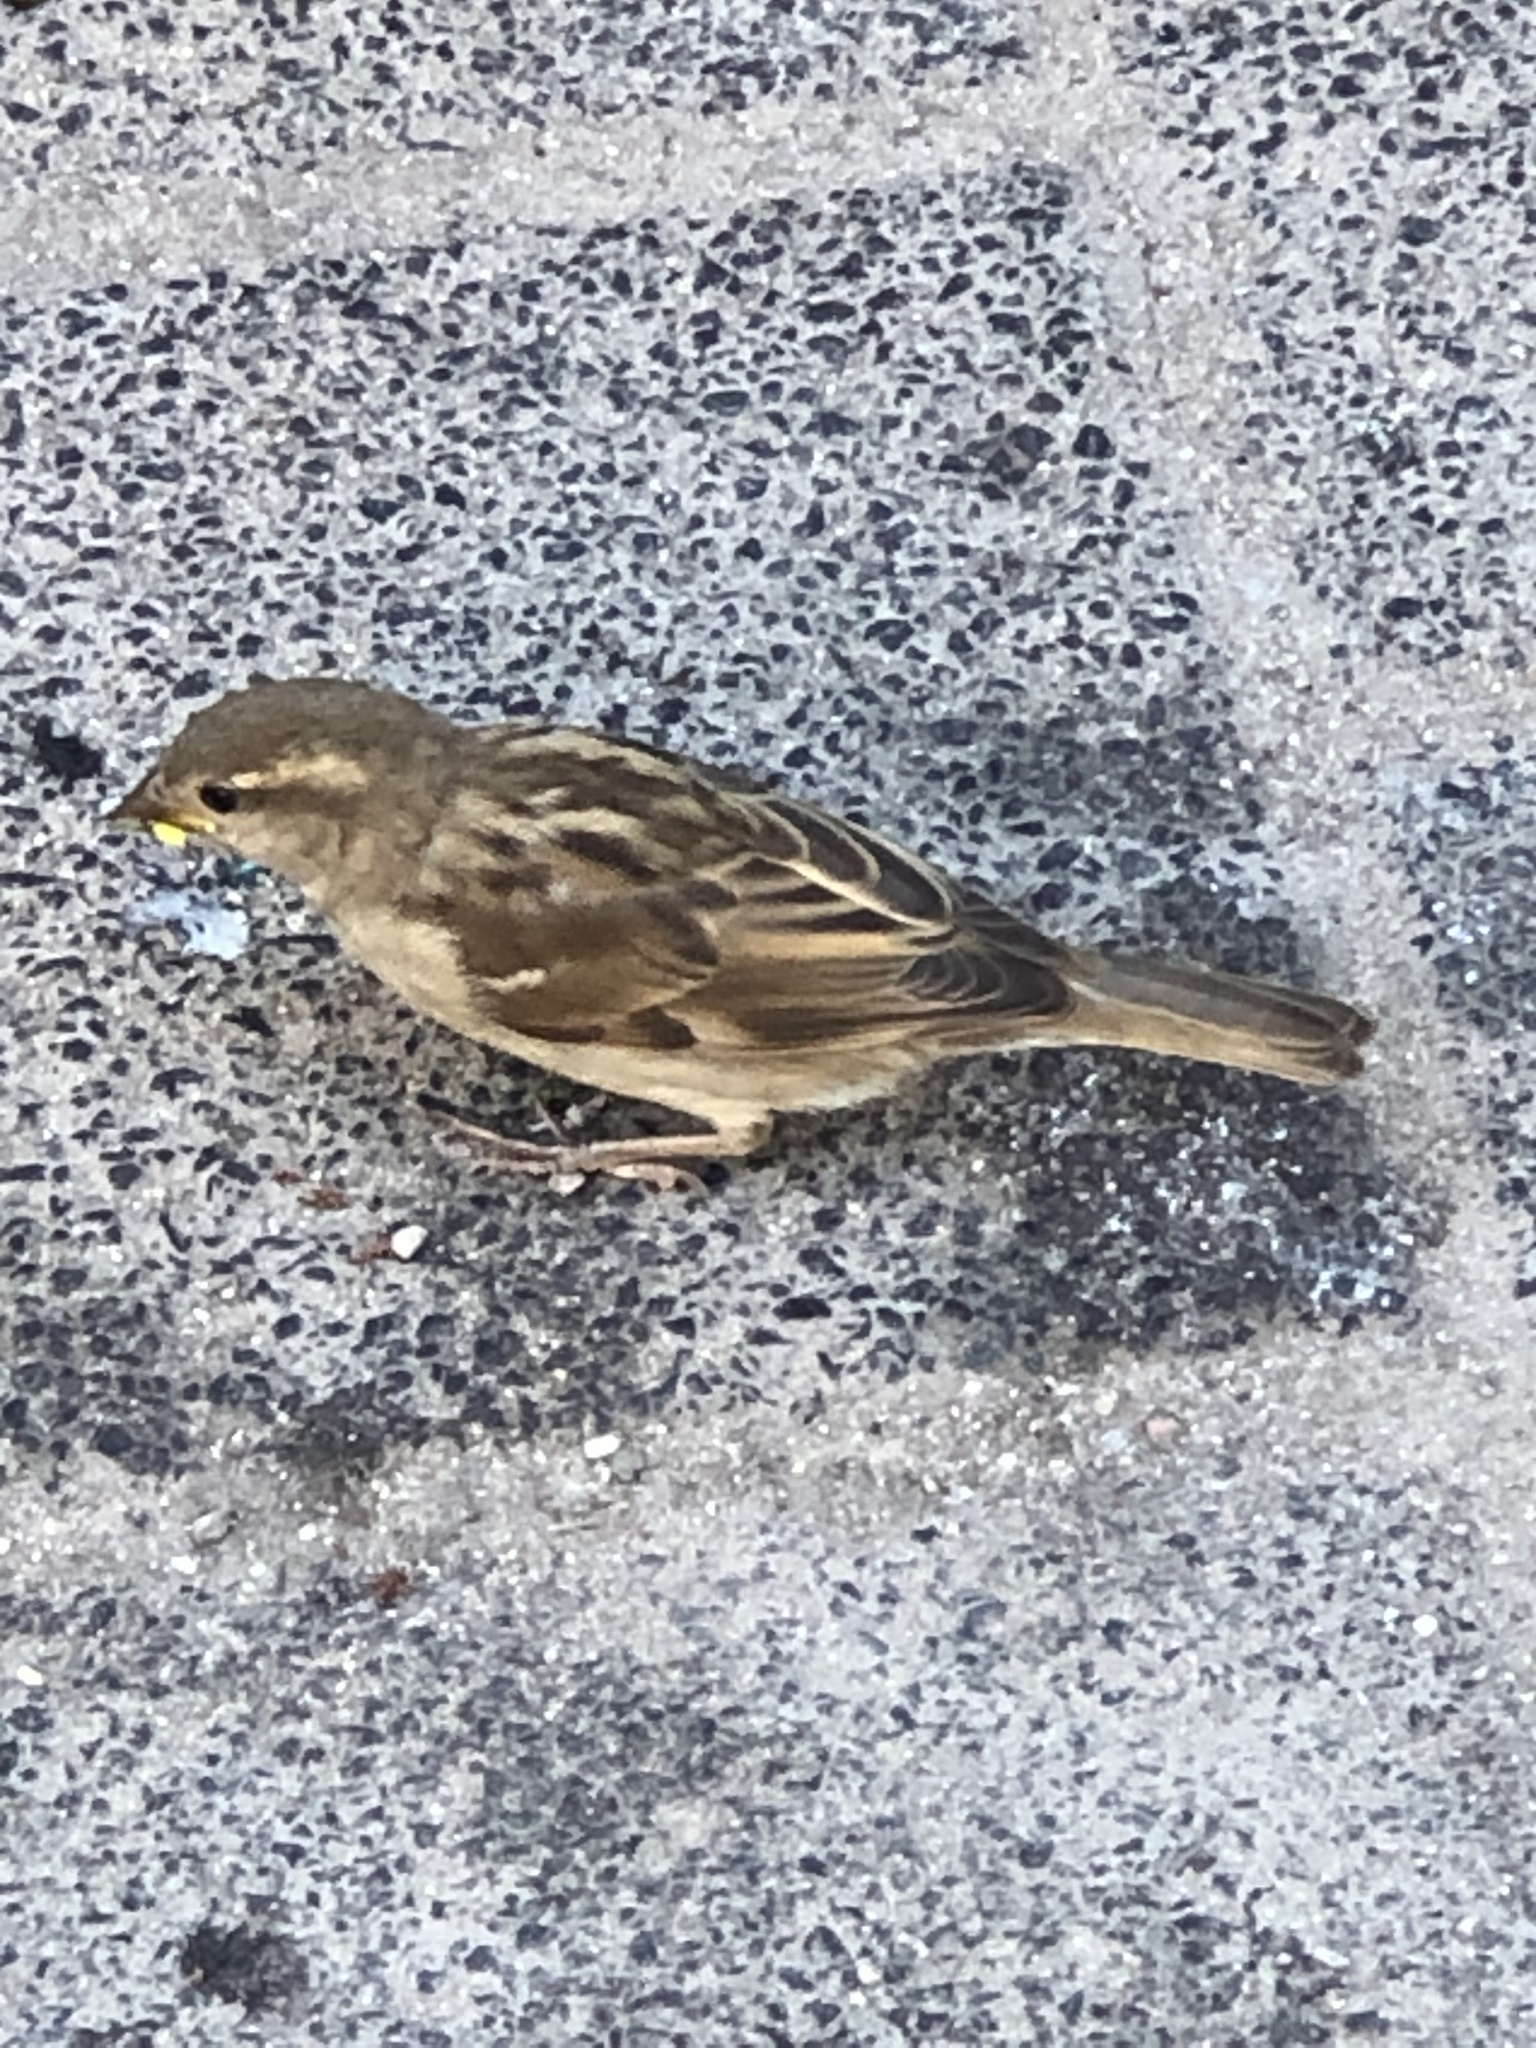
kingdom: Animalia
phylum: Chordata
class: Aves
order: Passeriformes
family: Passeridae
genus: Passer
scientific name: Passer domesticus
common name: House sparrow
